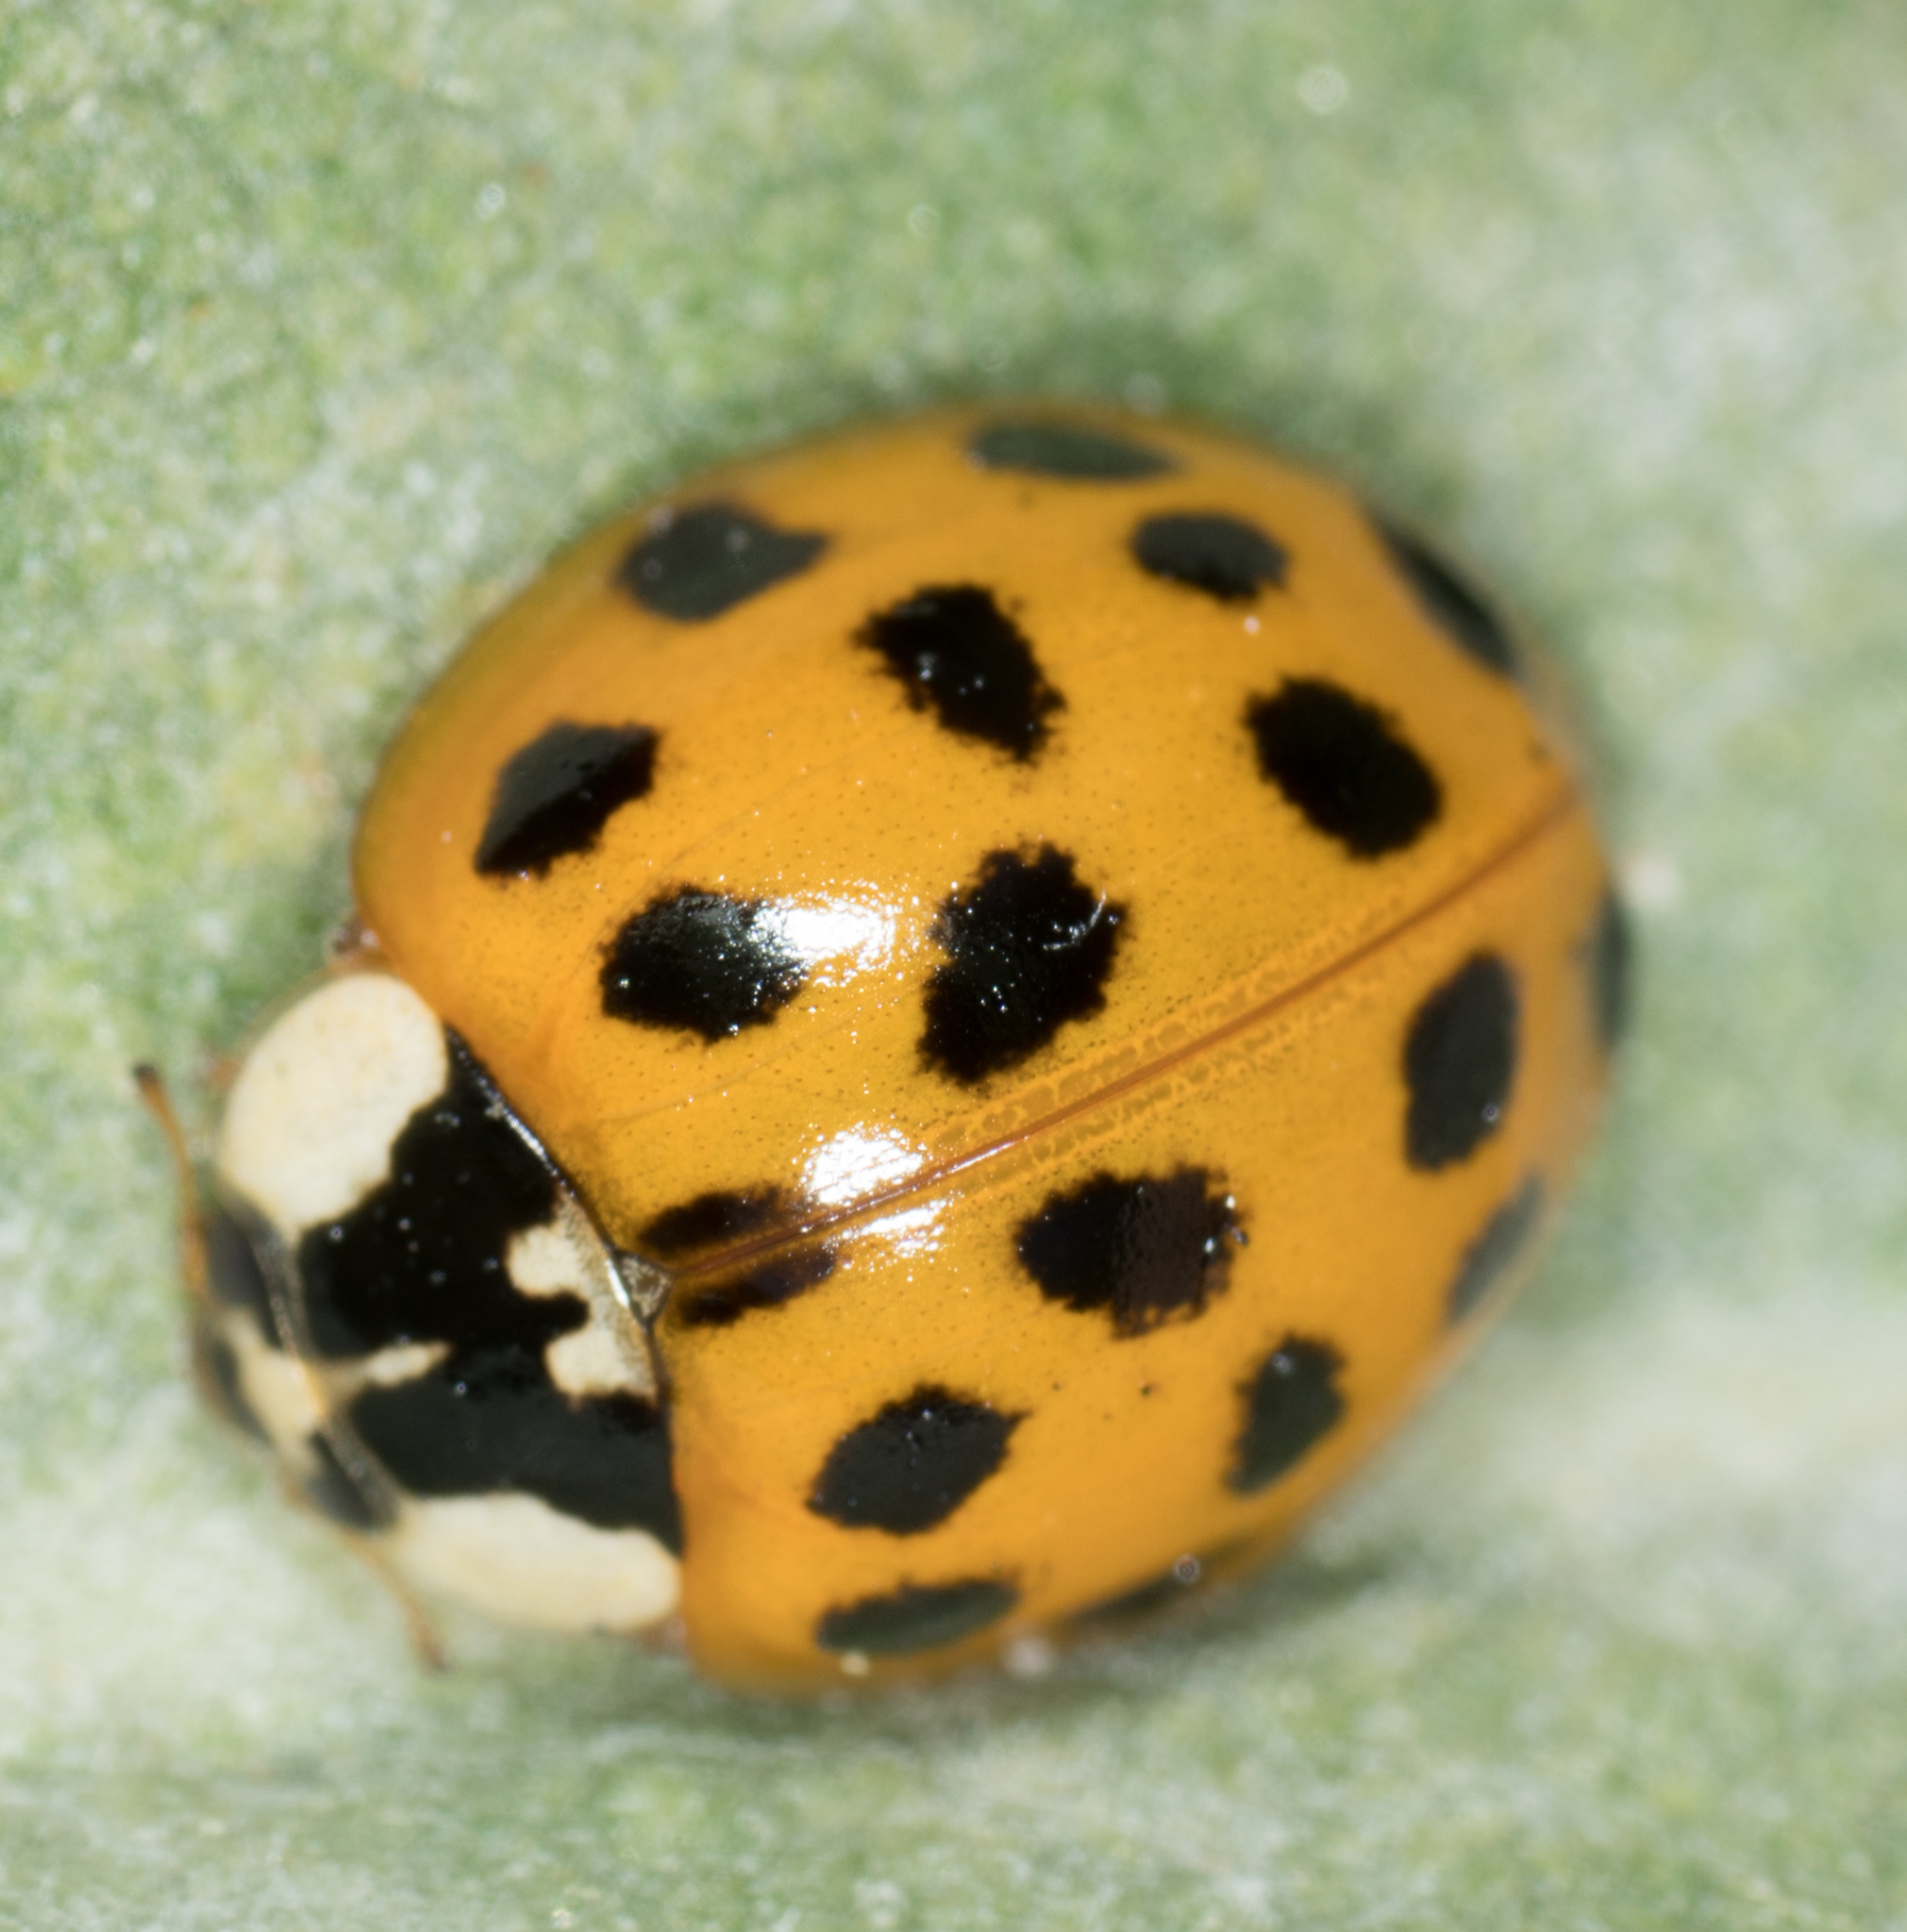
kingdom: Animalia
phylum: Arthropoda
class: Insecta
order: Coleoptera
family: Coccinellidae
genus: Harmonia
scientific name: Harmonia axyridis
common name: Harlequin ladybird
